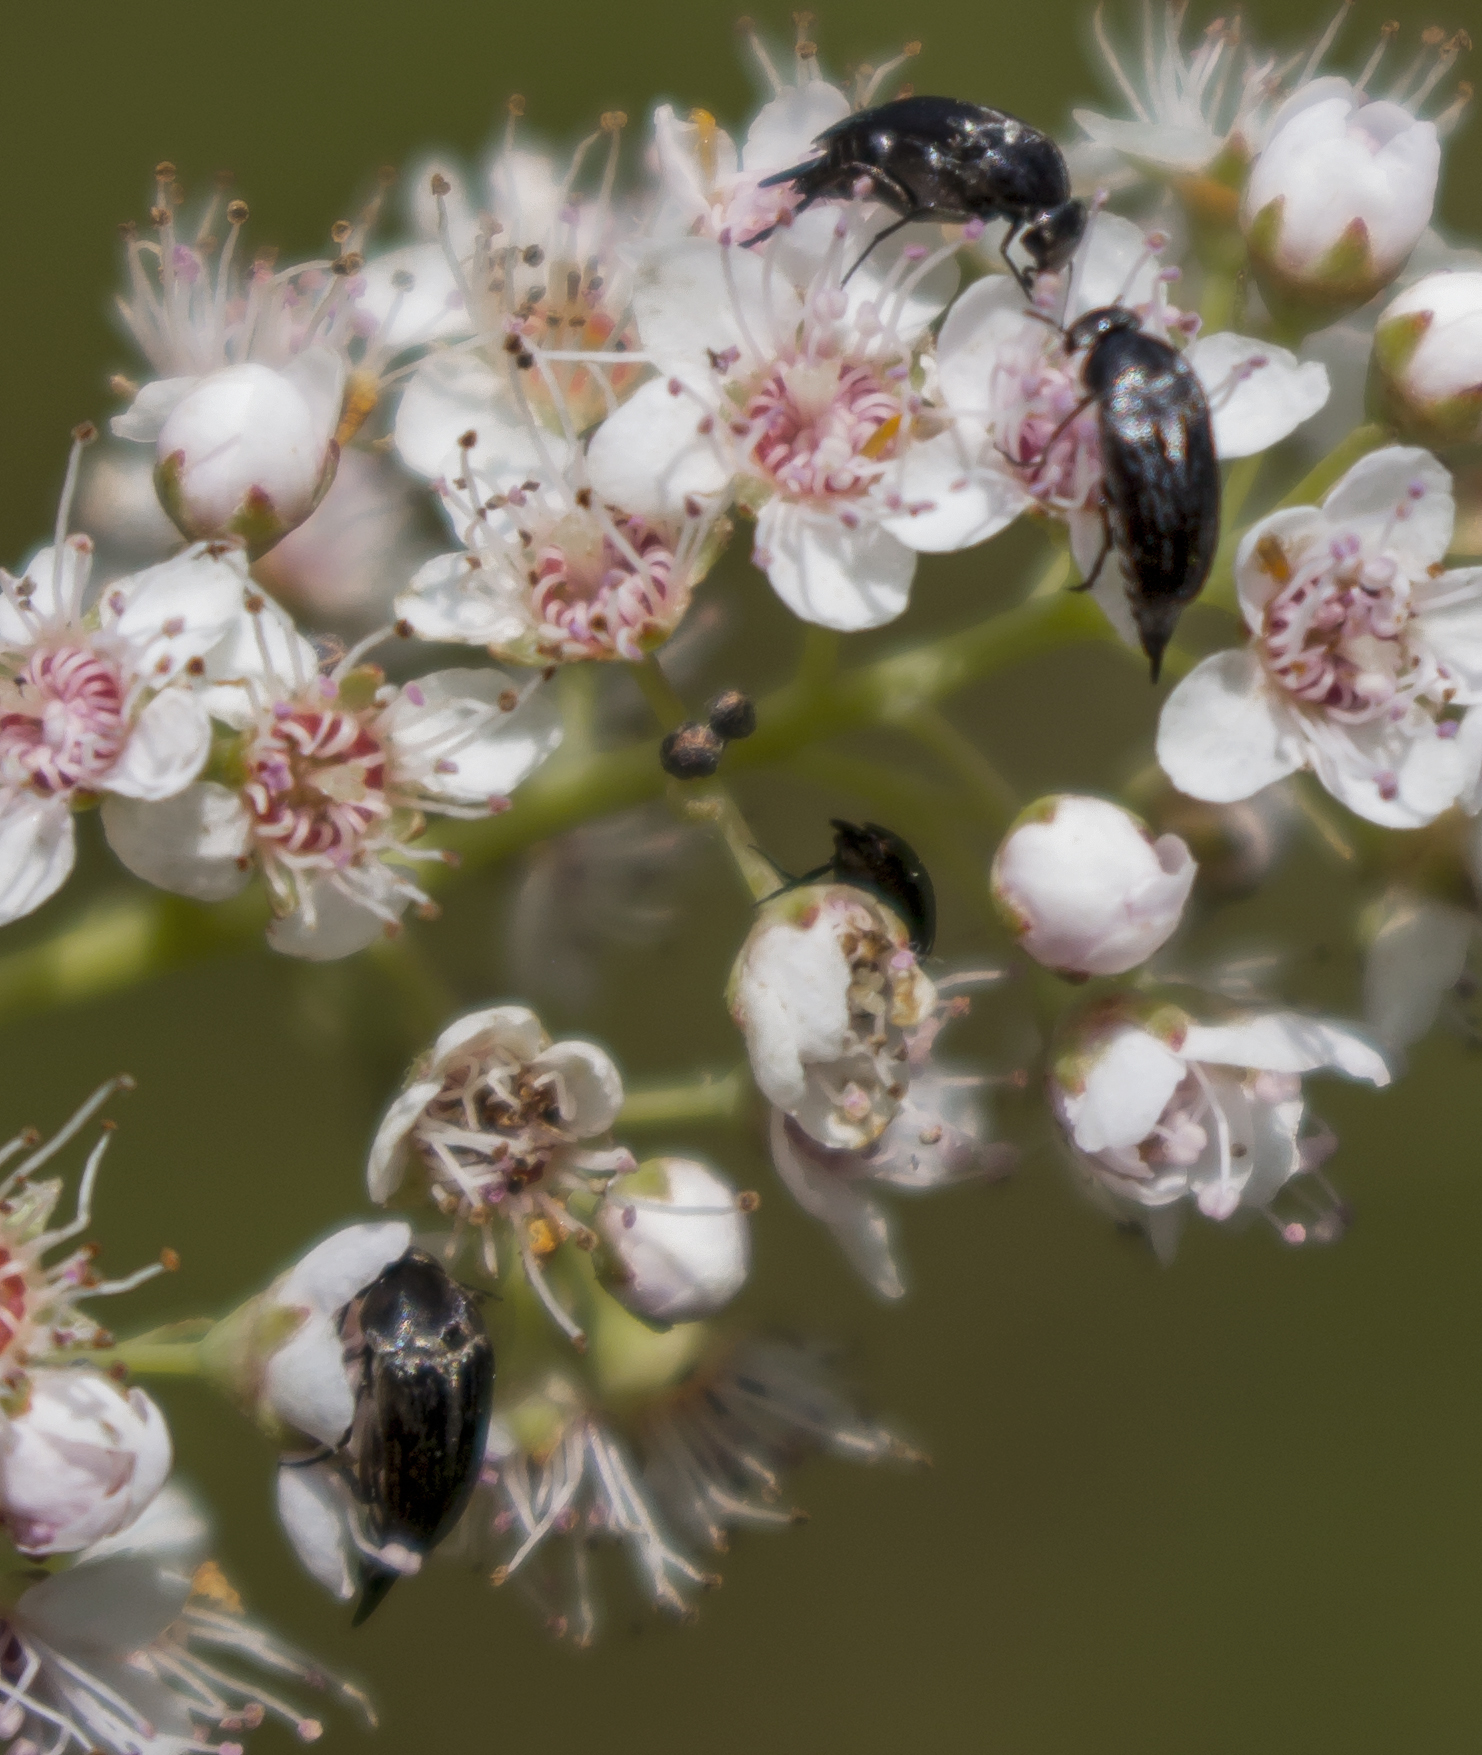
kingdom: Animalia
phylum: Arthropoda
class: Insecta
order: Coleoptera
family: Mordellidae
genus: Mordella
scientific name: Mordella marginata
